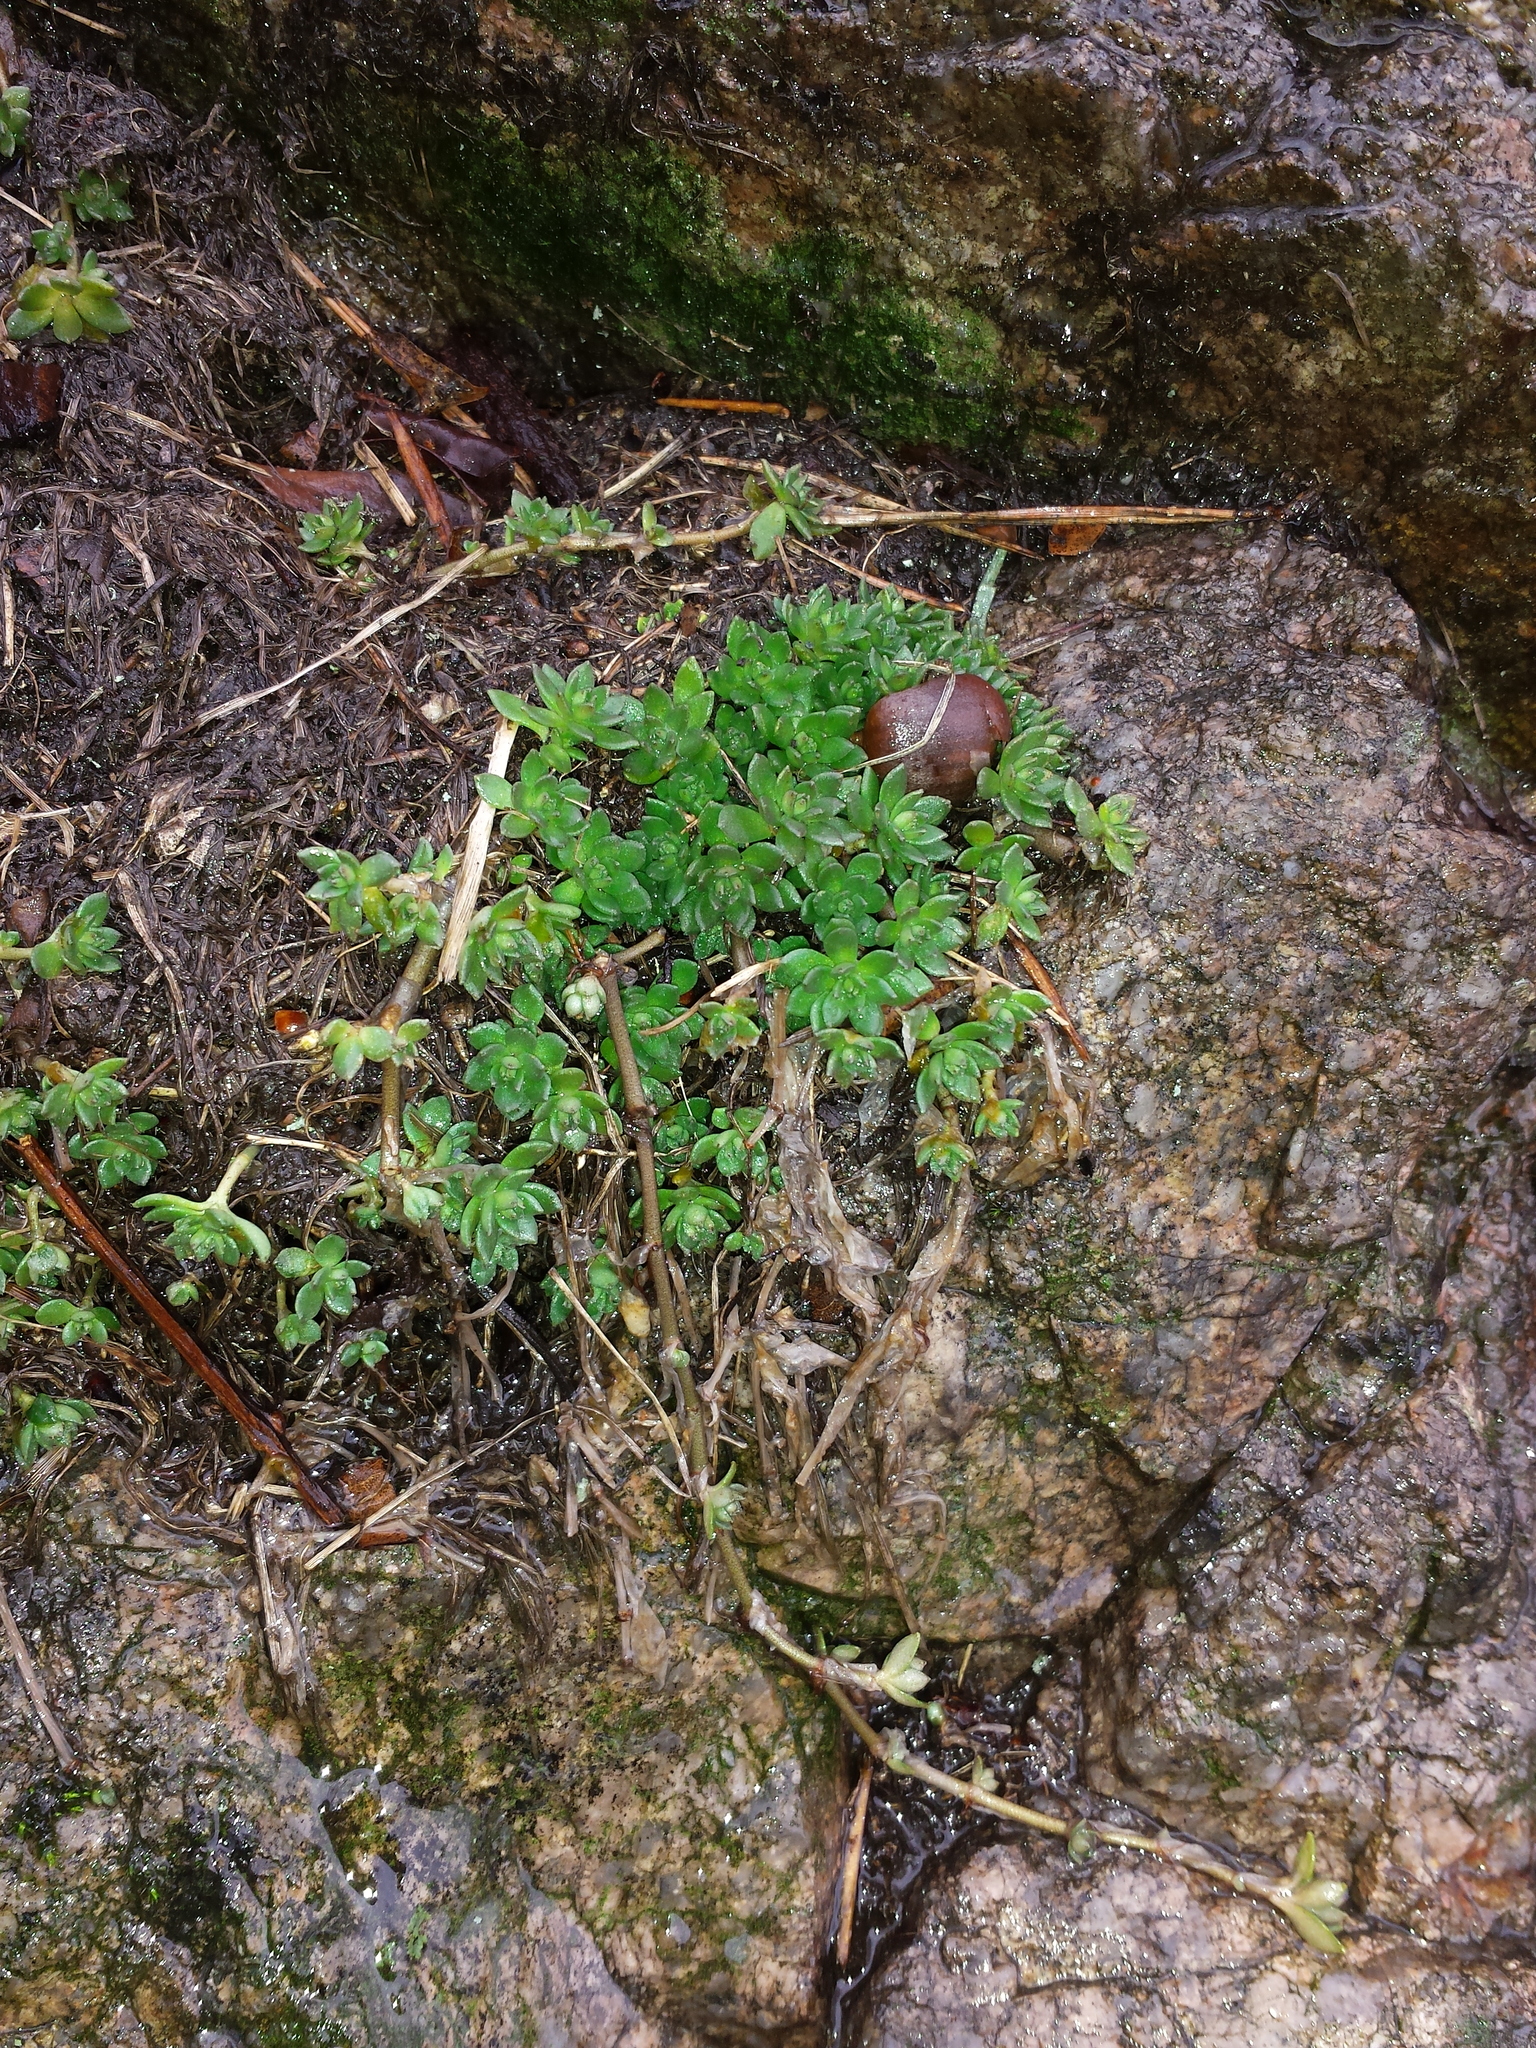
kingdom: Plantae
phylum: Tracheophyta
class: Magnoliopsida
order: Saxifragales
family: Crassulaceae
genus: Sedum
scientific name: Sedum sarmentosum
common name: Stringy stonecrop
